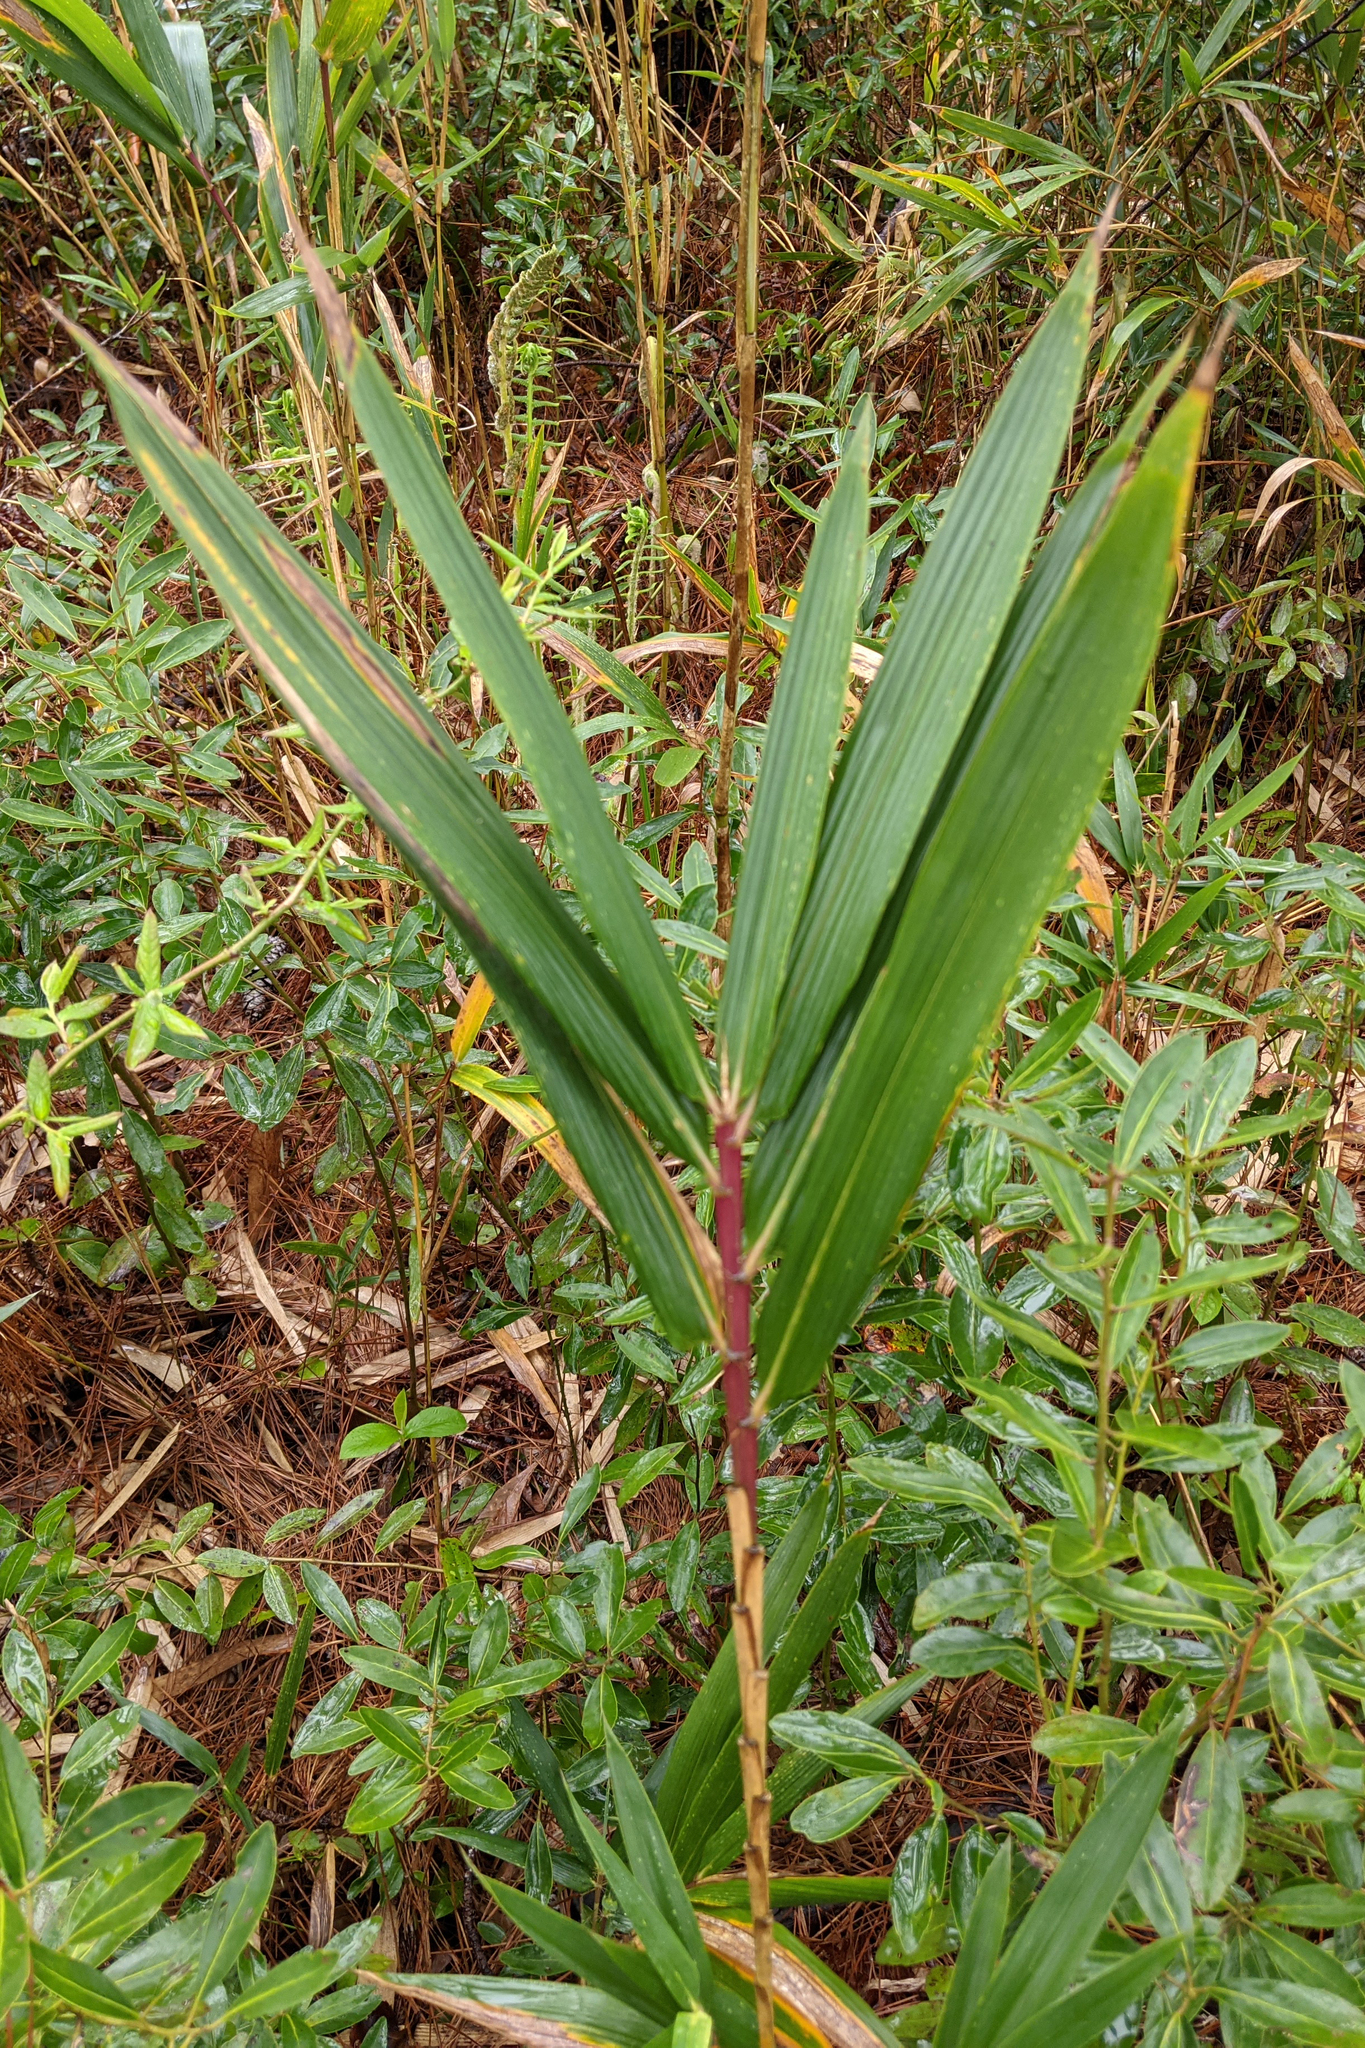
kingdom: Plantae
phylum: Tracheophyta
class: Liliopsida
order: Poales
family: Poaceae
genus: Arundinaria
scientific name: Arundinaria tecta
